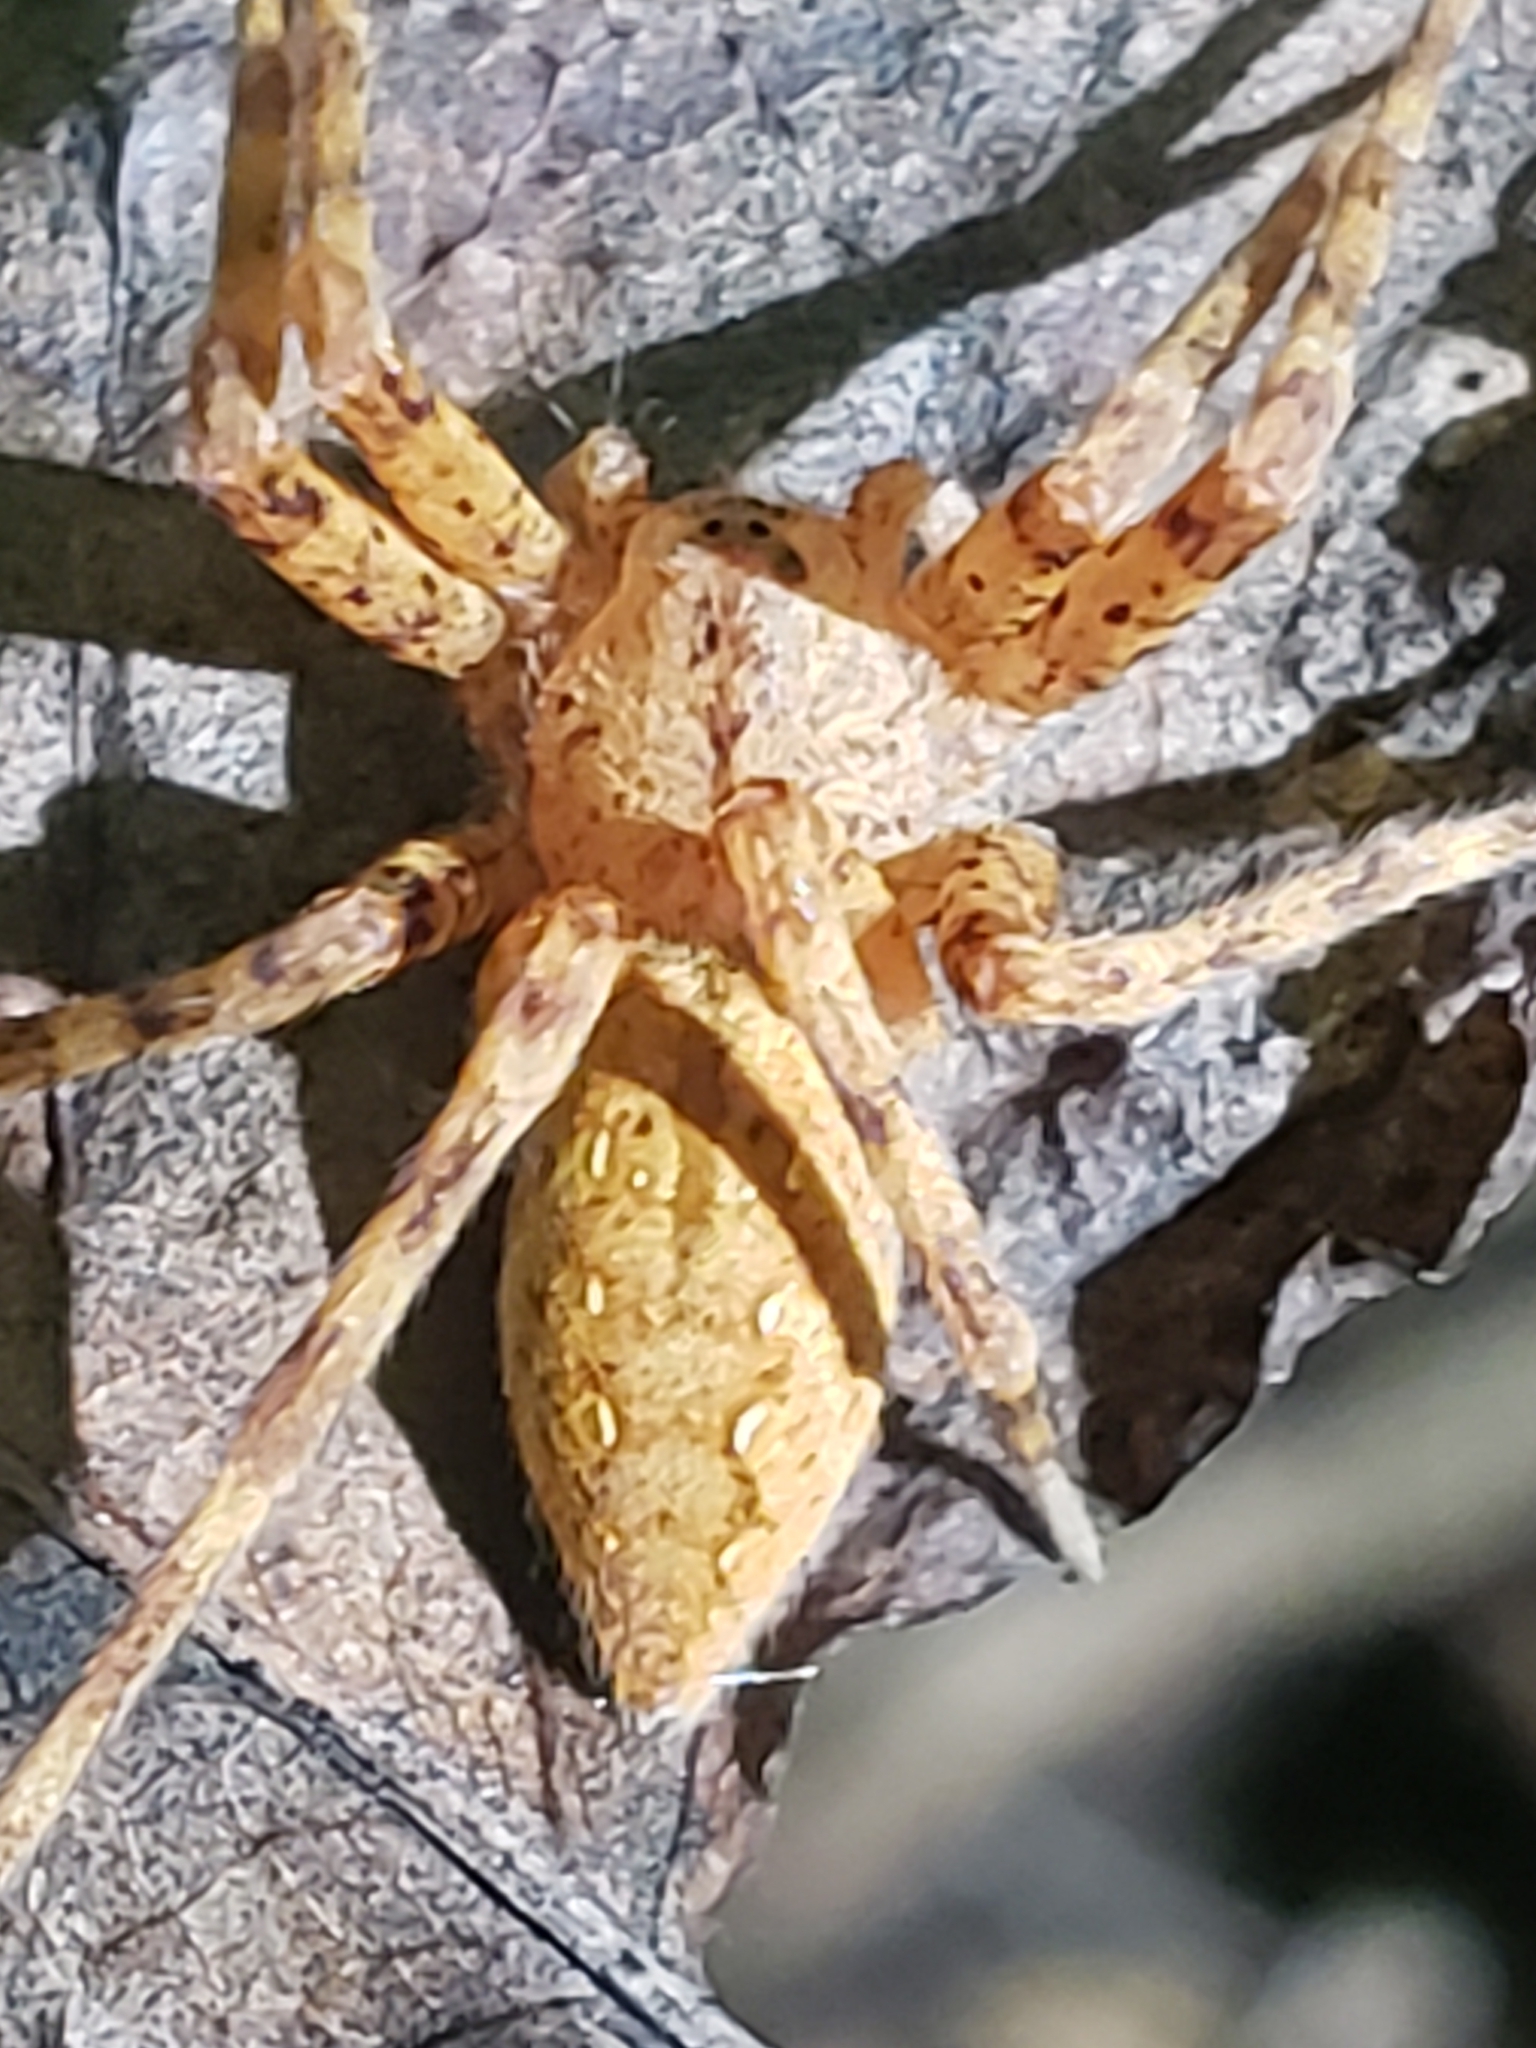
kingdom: Animalia
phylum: Arthropoda
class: Arachnida
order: Araneae
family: Pisauridae
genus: Pisaurina
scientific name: Pisaurina mira
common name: American nursery web spider
